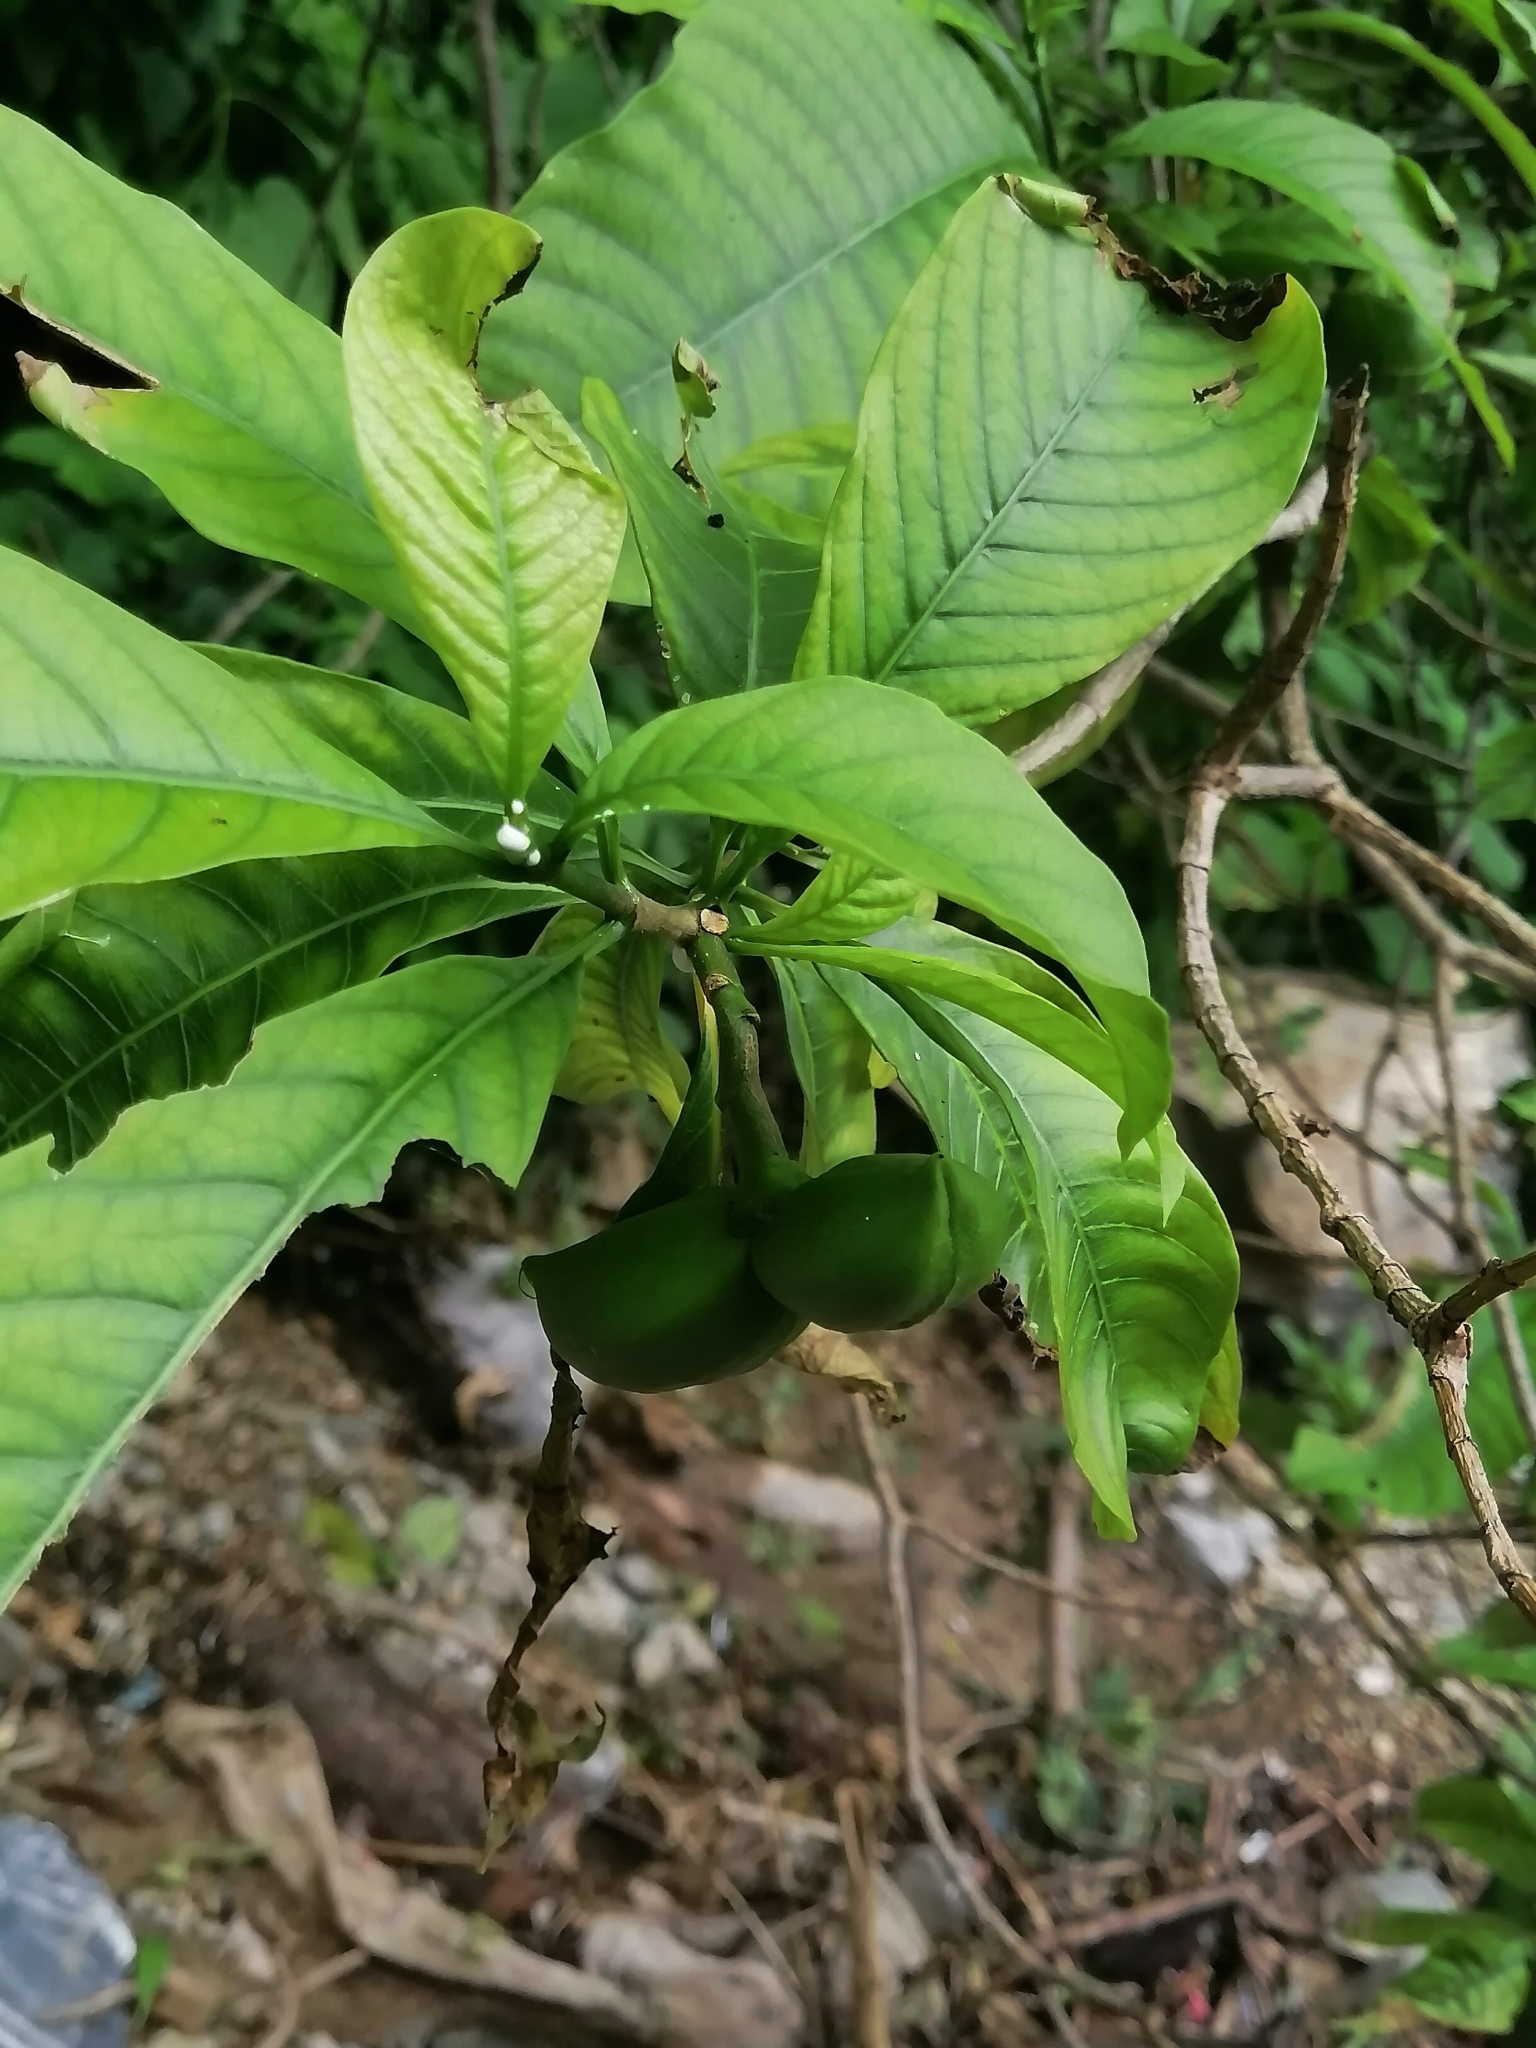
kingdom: Plantae
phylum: Tracheophyta
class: Magnoliopsida
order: Gentianales
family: Apocynaceae
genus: Tabernaemontana
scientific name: Tabernaemontana glabra
